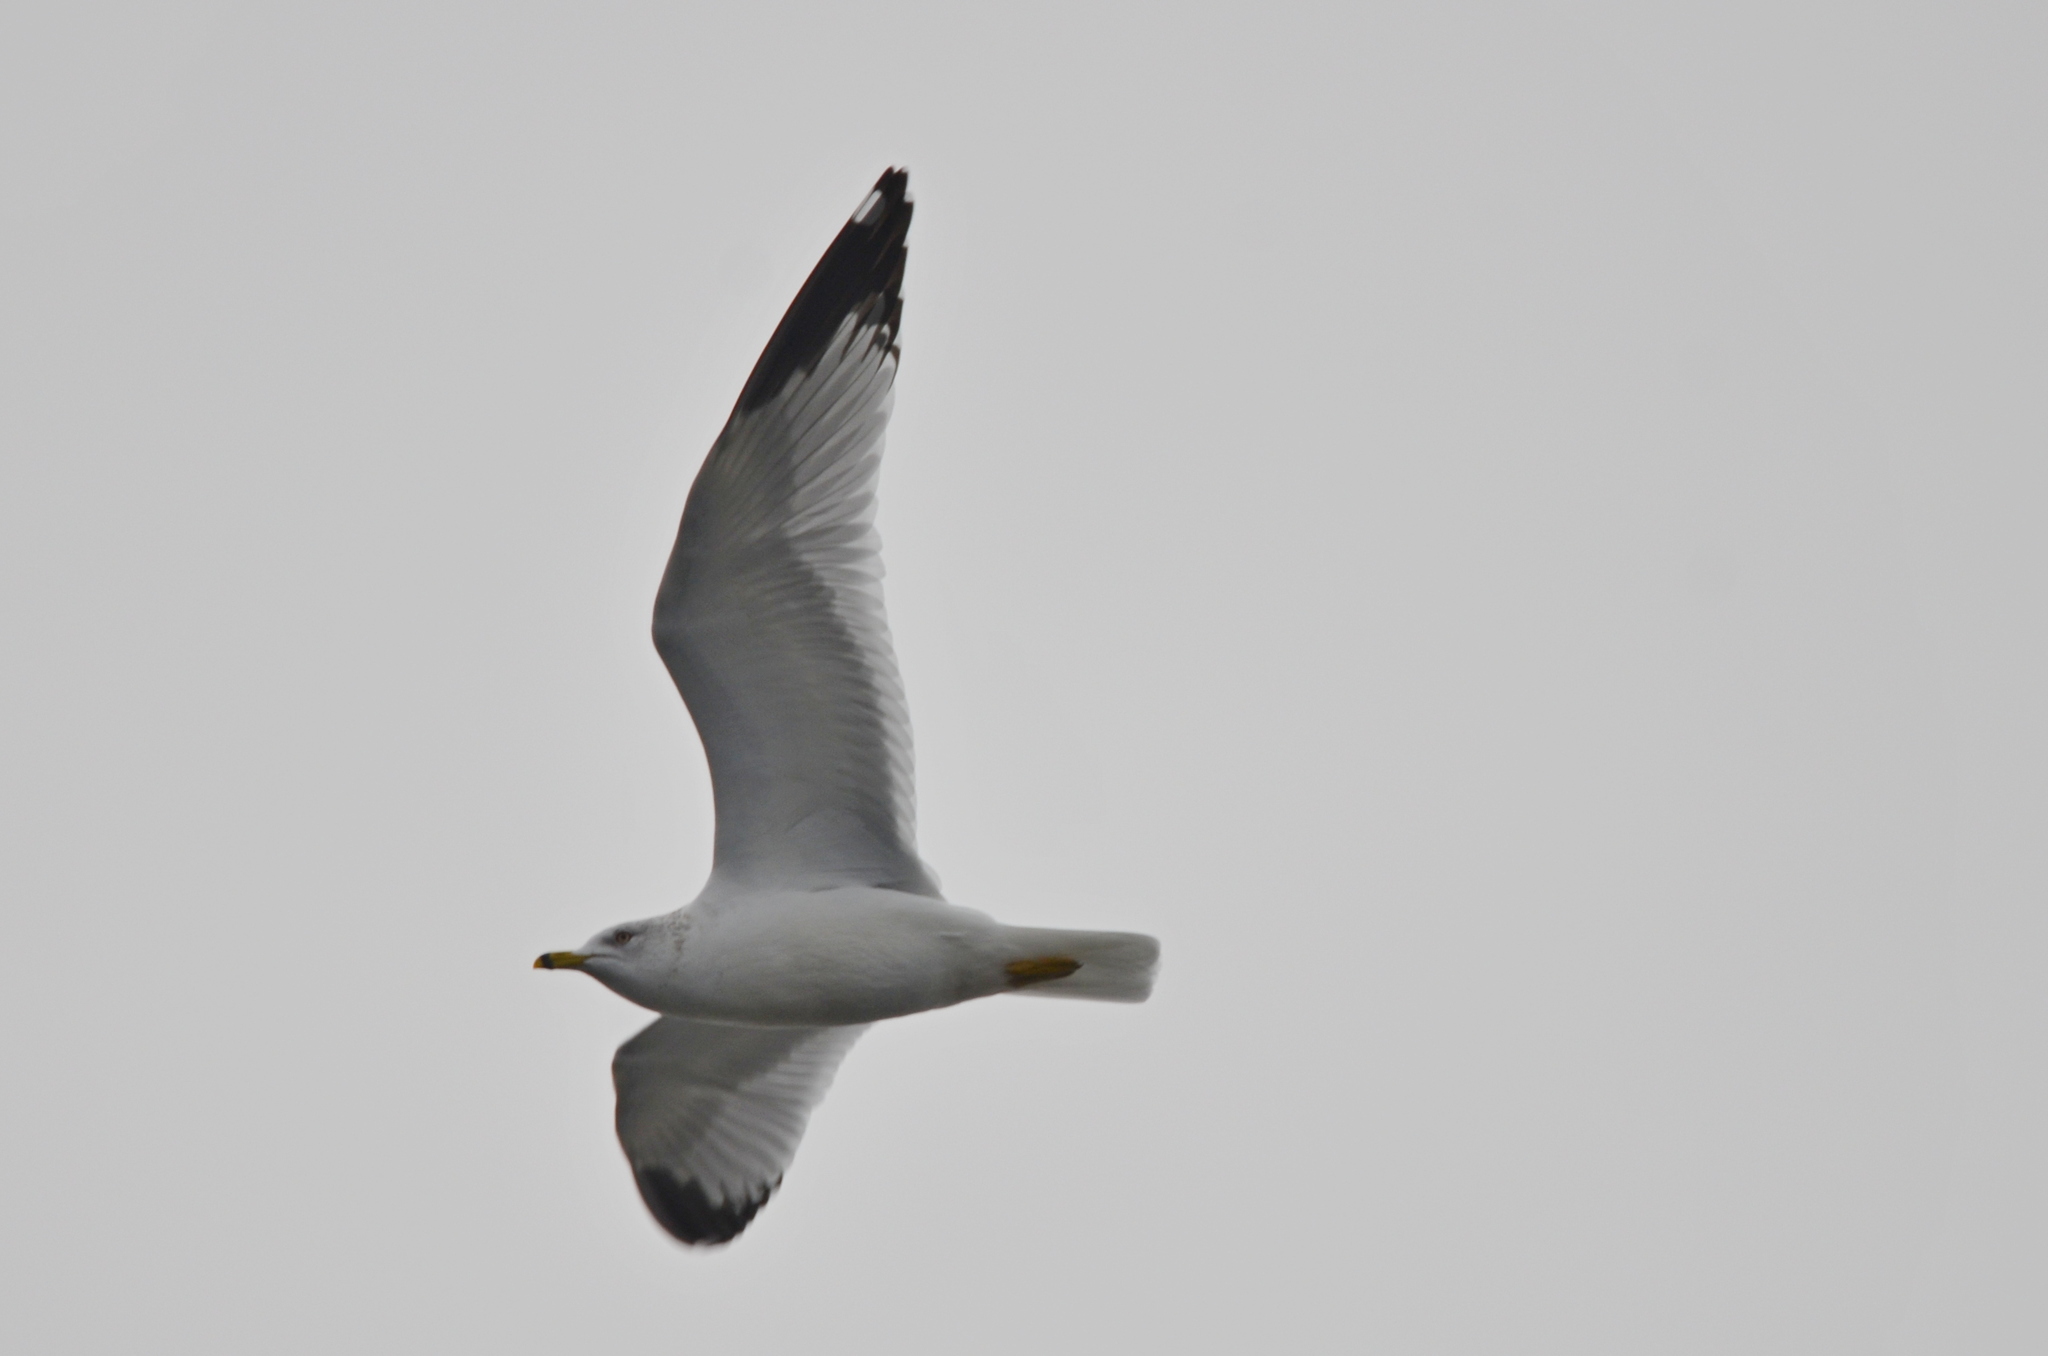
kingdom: Animalia
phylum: Chordata
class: Aves
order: Charadriiformes
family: Laridae
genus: Larus
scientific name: Larus delawarensis
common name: Ring-billed gull
